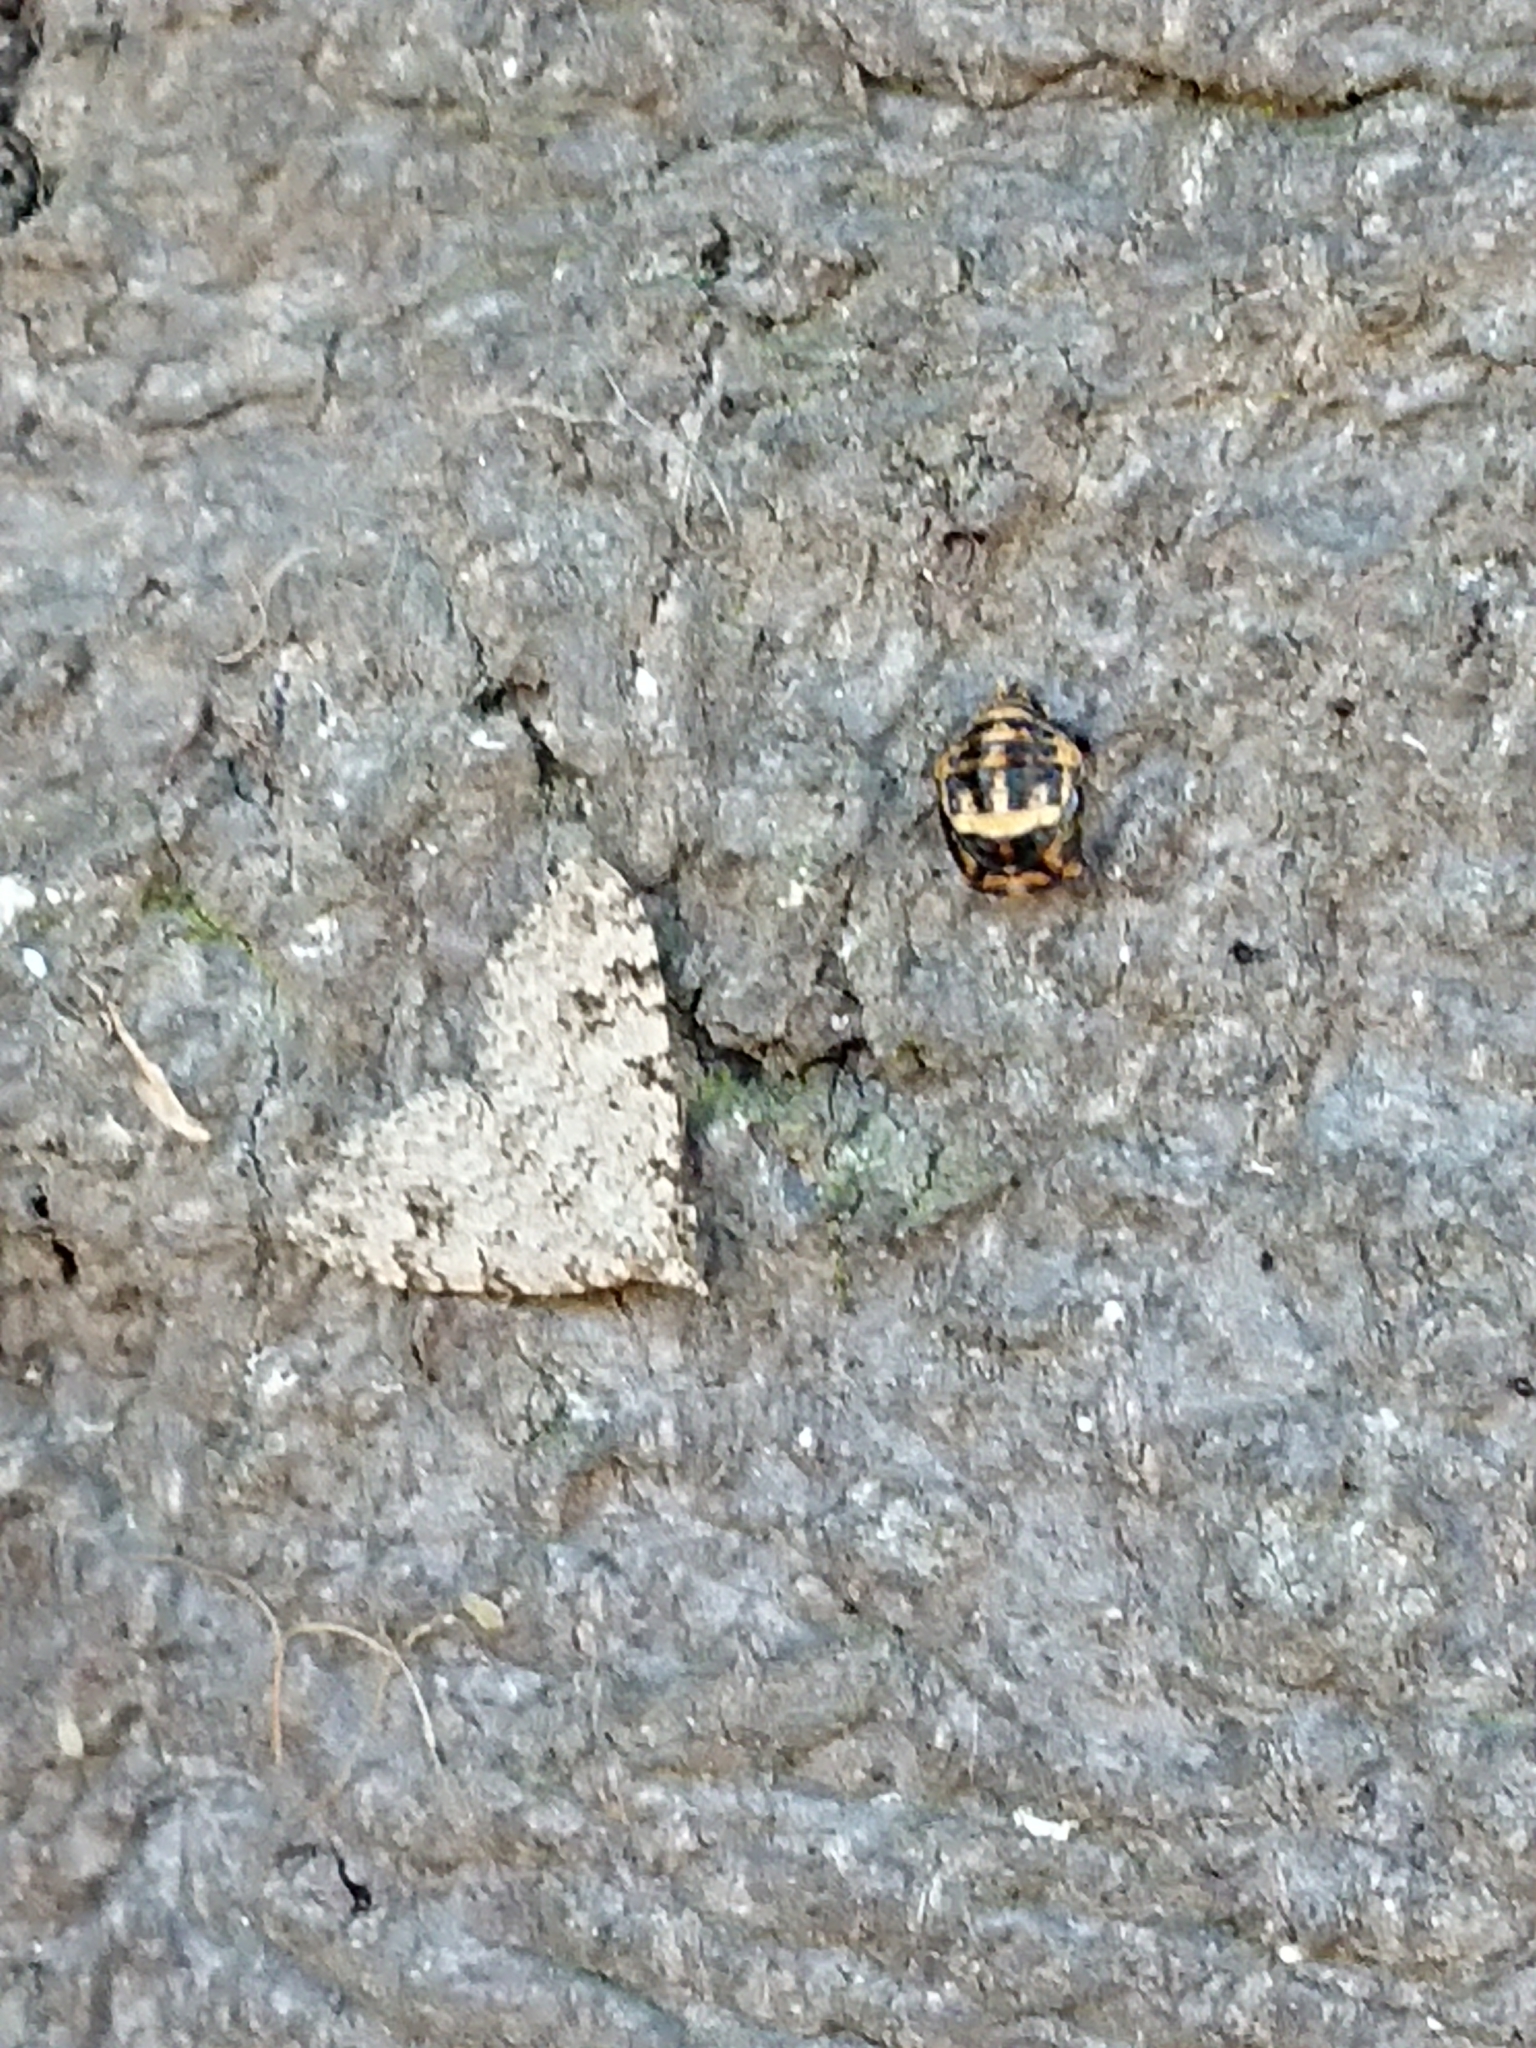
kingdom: Animalia
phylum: Arthropoda
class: Insecta
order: Lepidoptera
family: Geometridae
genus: Helastia
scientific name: Helastia cinerearia
